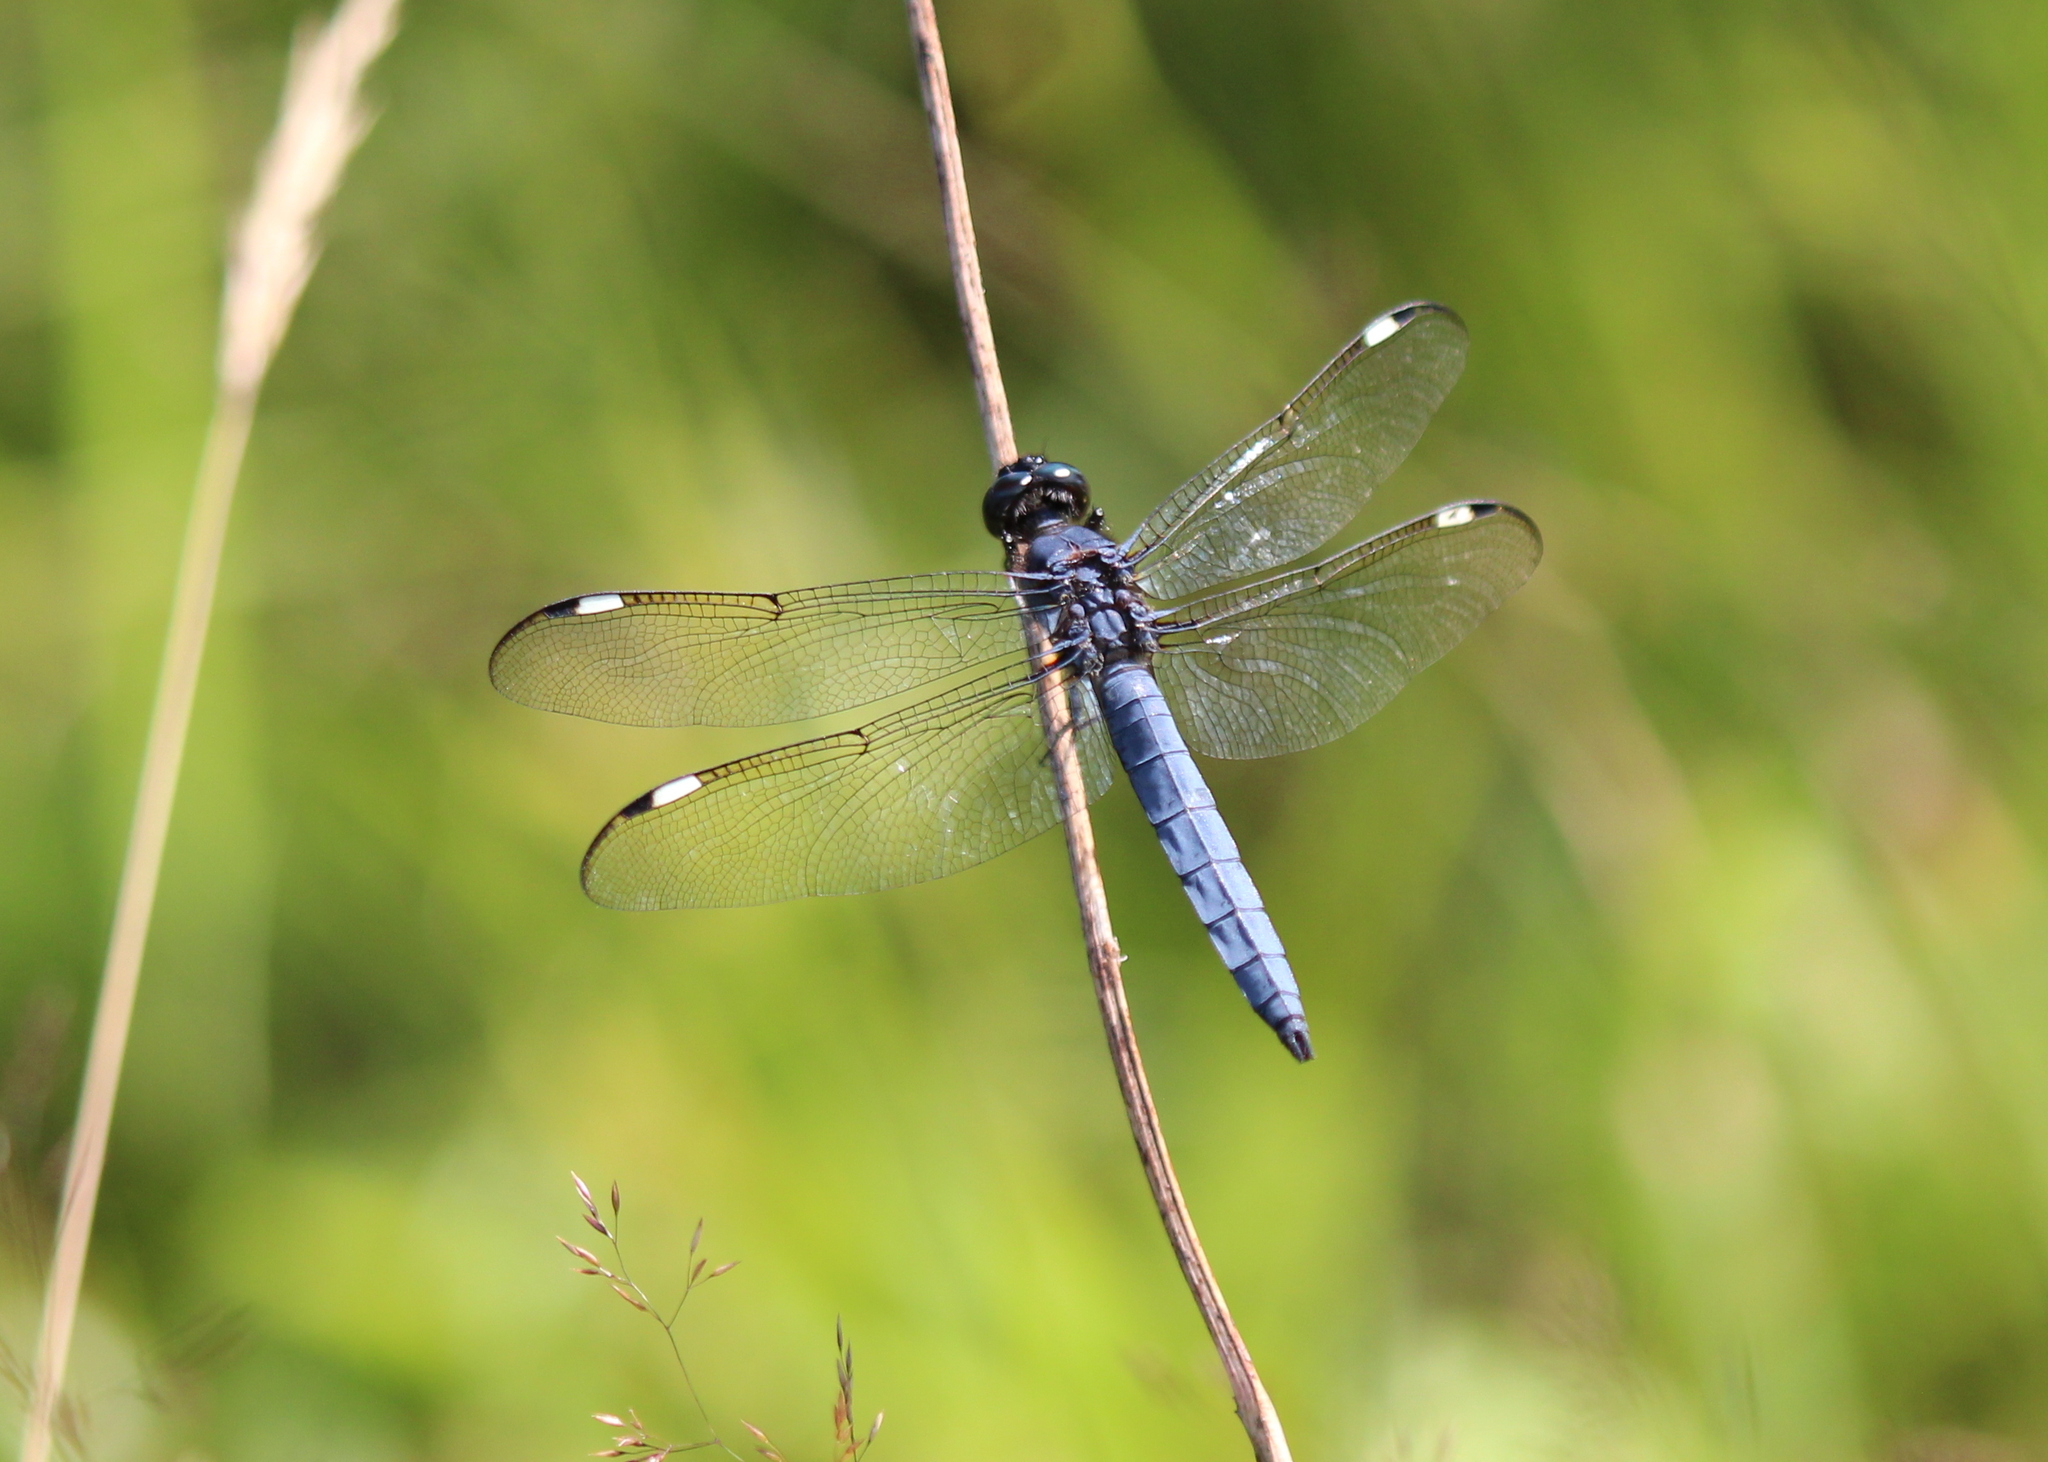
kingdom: Animalia
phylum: Arthropoda
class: Insecta
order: Odonata
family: Libellulidae
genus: Libellula
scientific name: Libellula cyanea
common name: Spangled skimmer
